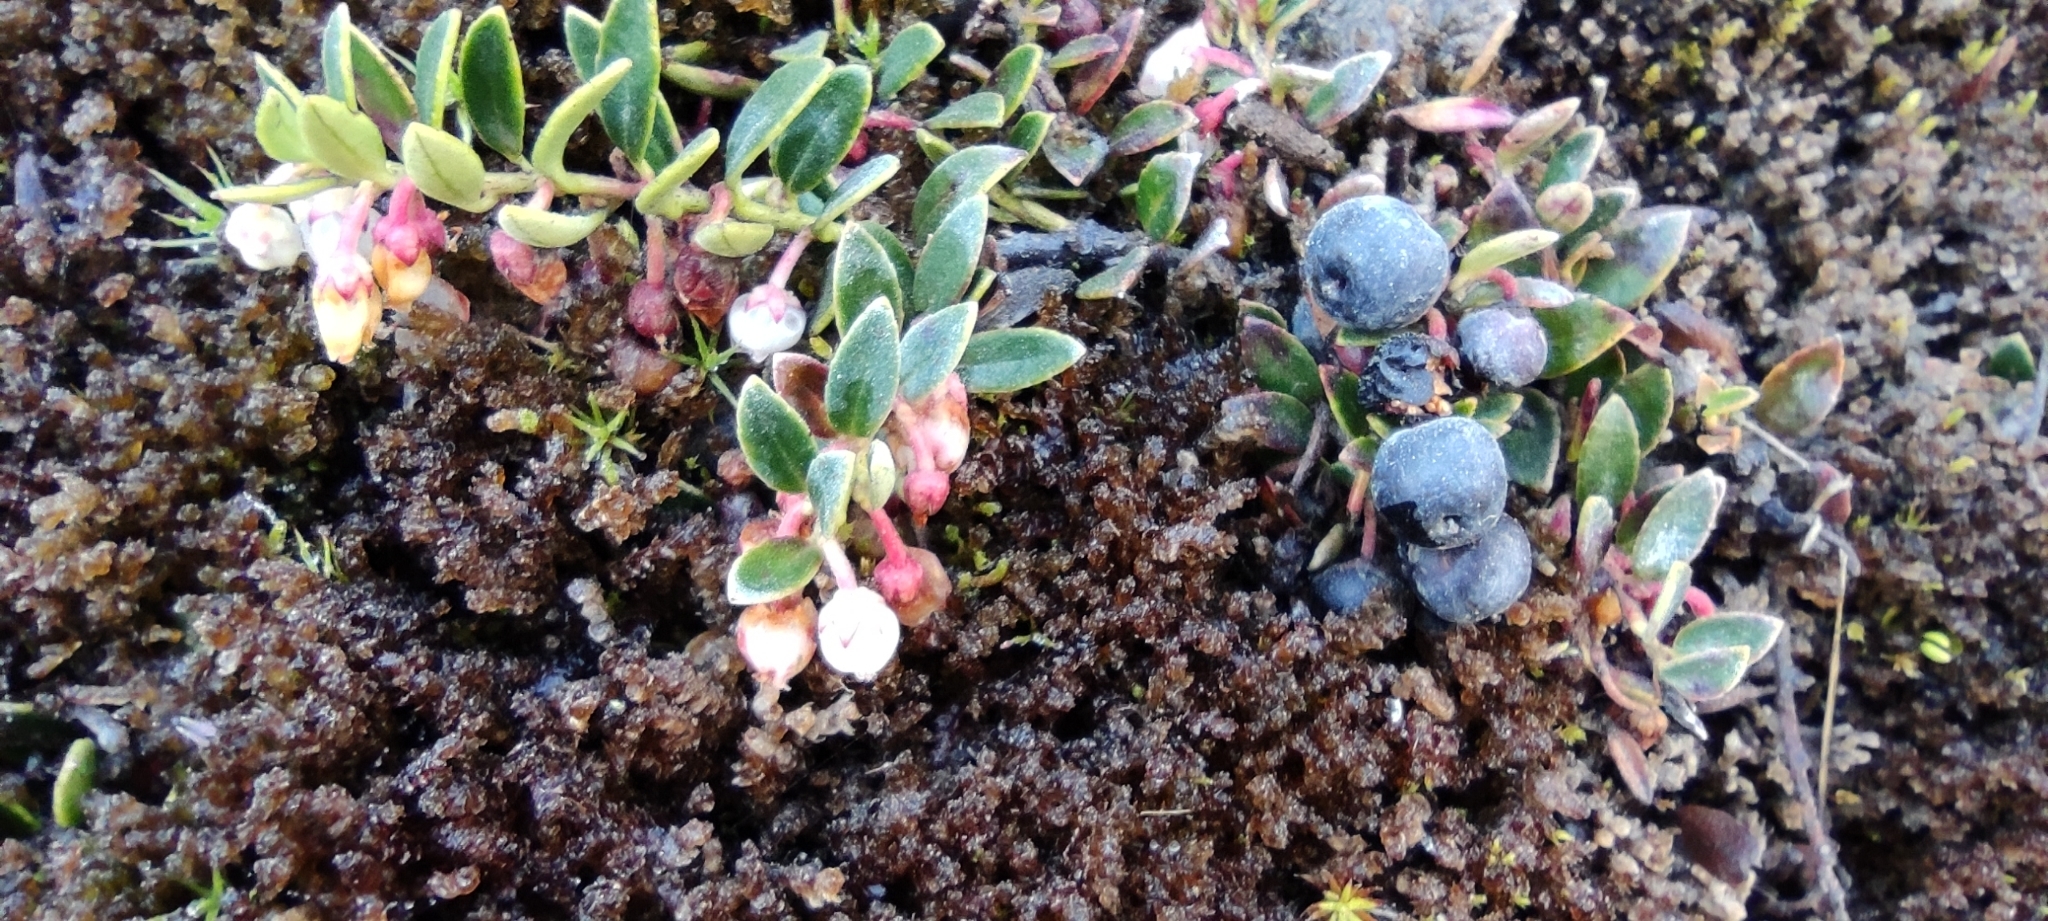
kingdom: Plantae
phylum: Tracheophyta
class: Magnoliopsida
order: Ericales
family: Ericaceae
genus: Gaultheria
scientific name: Gaultheria myrsinoides
